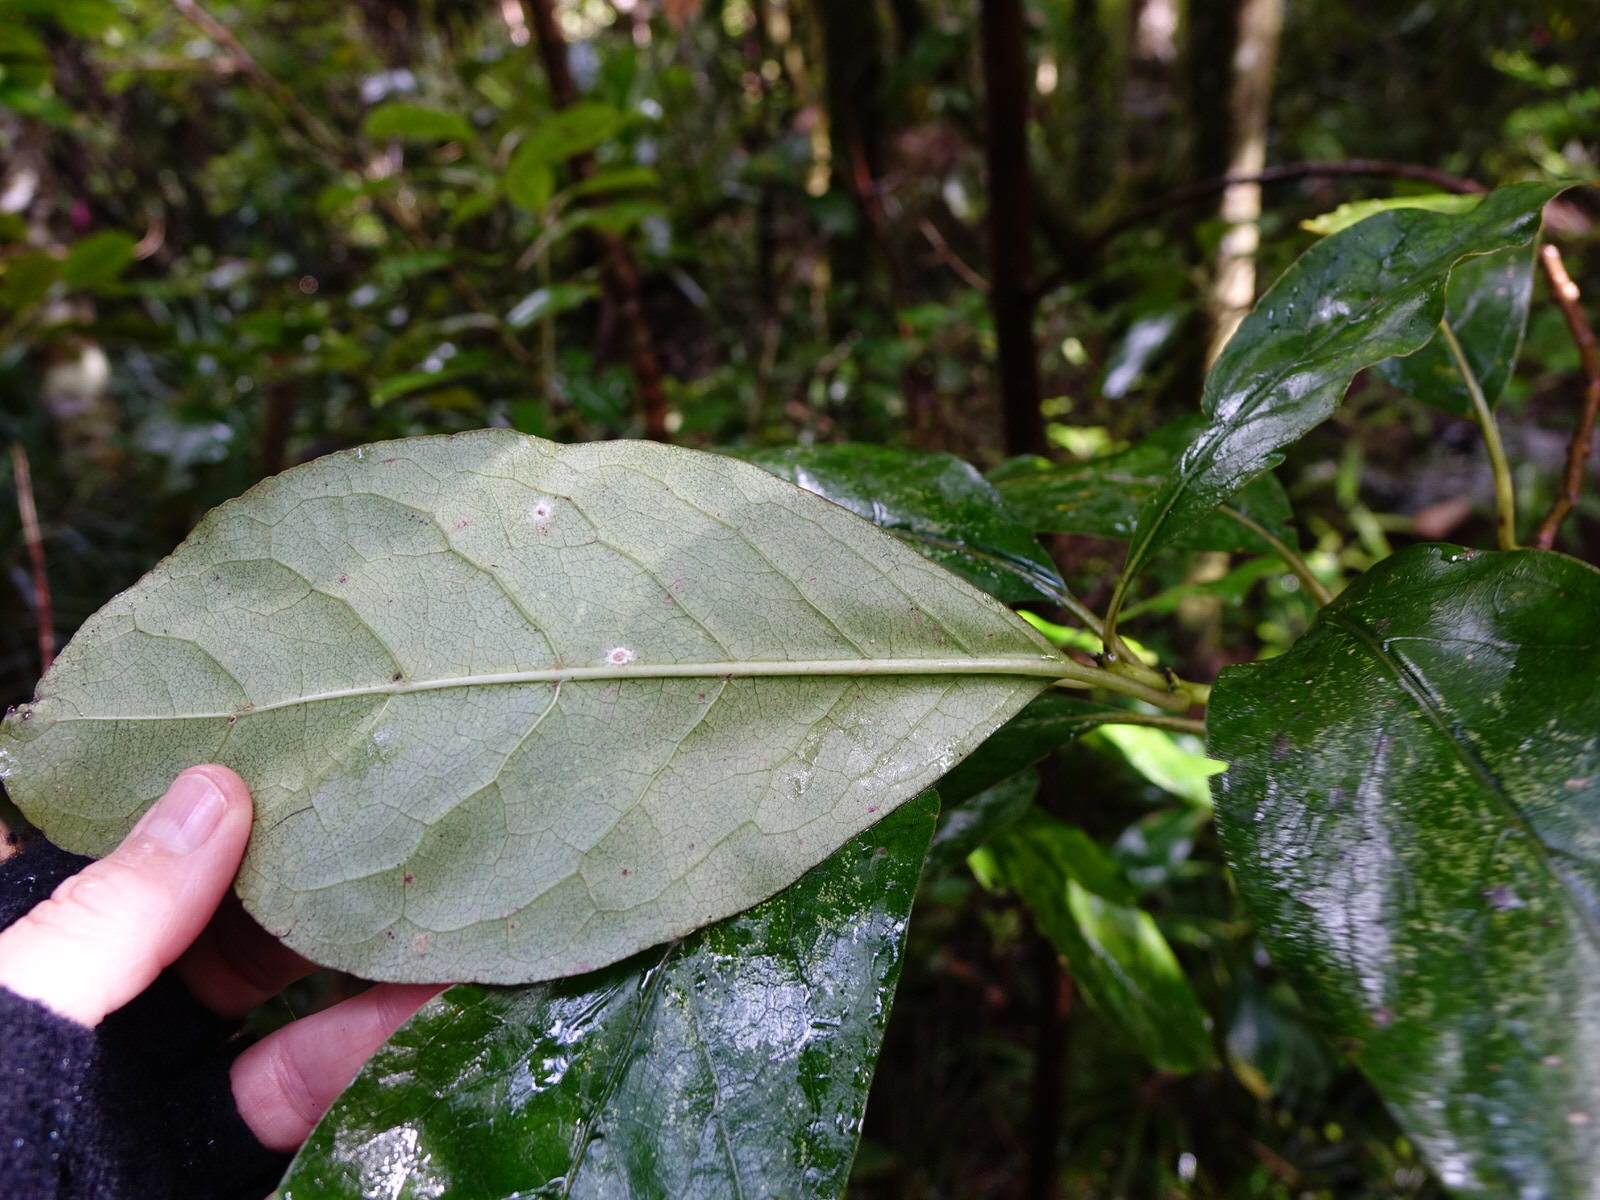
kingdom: Plantae
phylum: Tracheophyta
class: Magnoliopsida
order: Gentianales
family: Rubiaceae
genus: Coprosma
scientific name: Coprosma autumnalis
